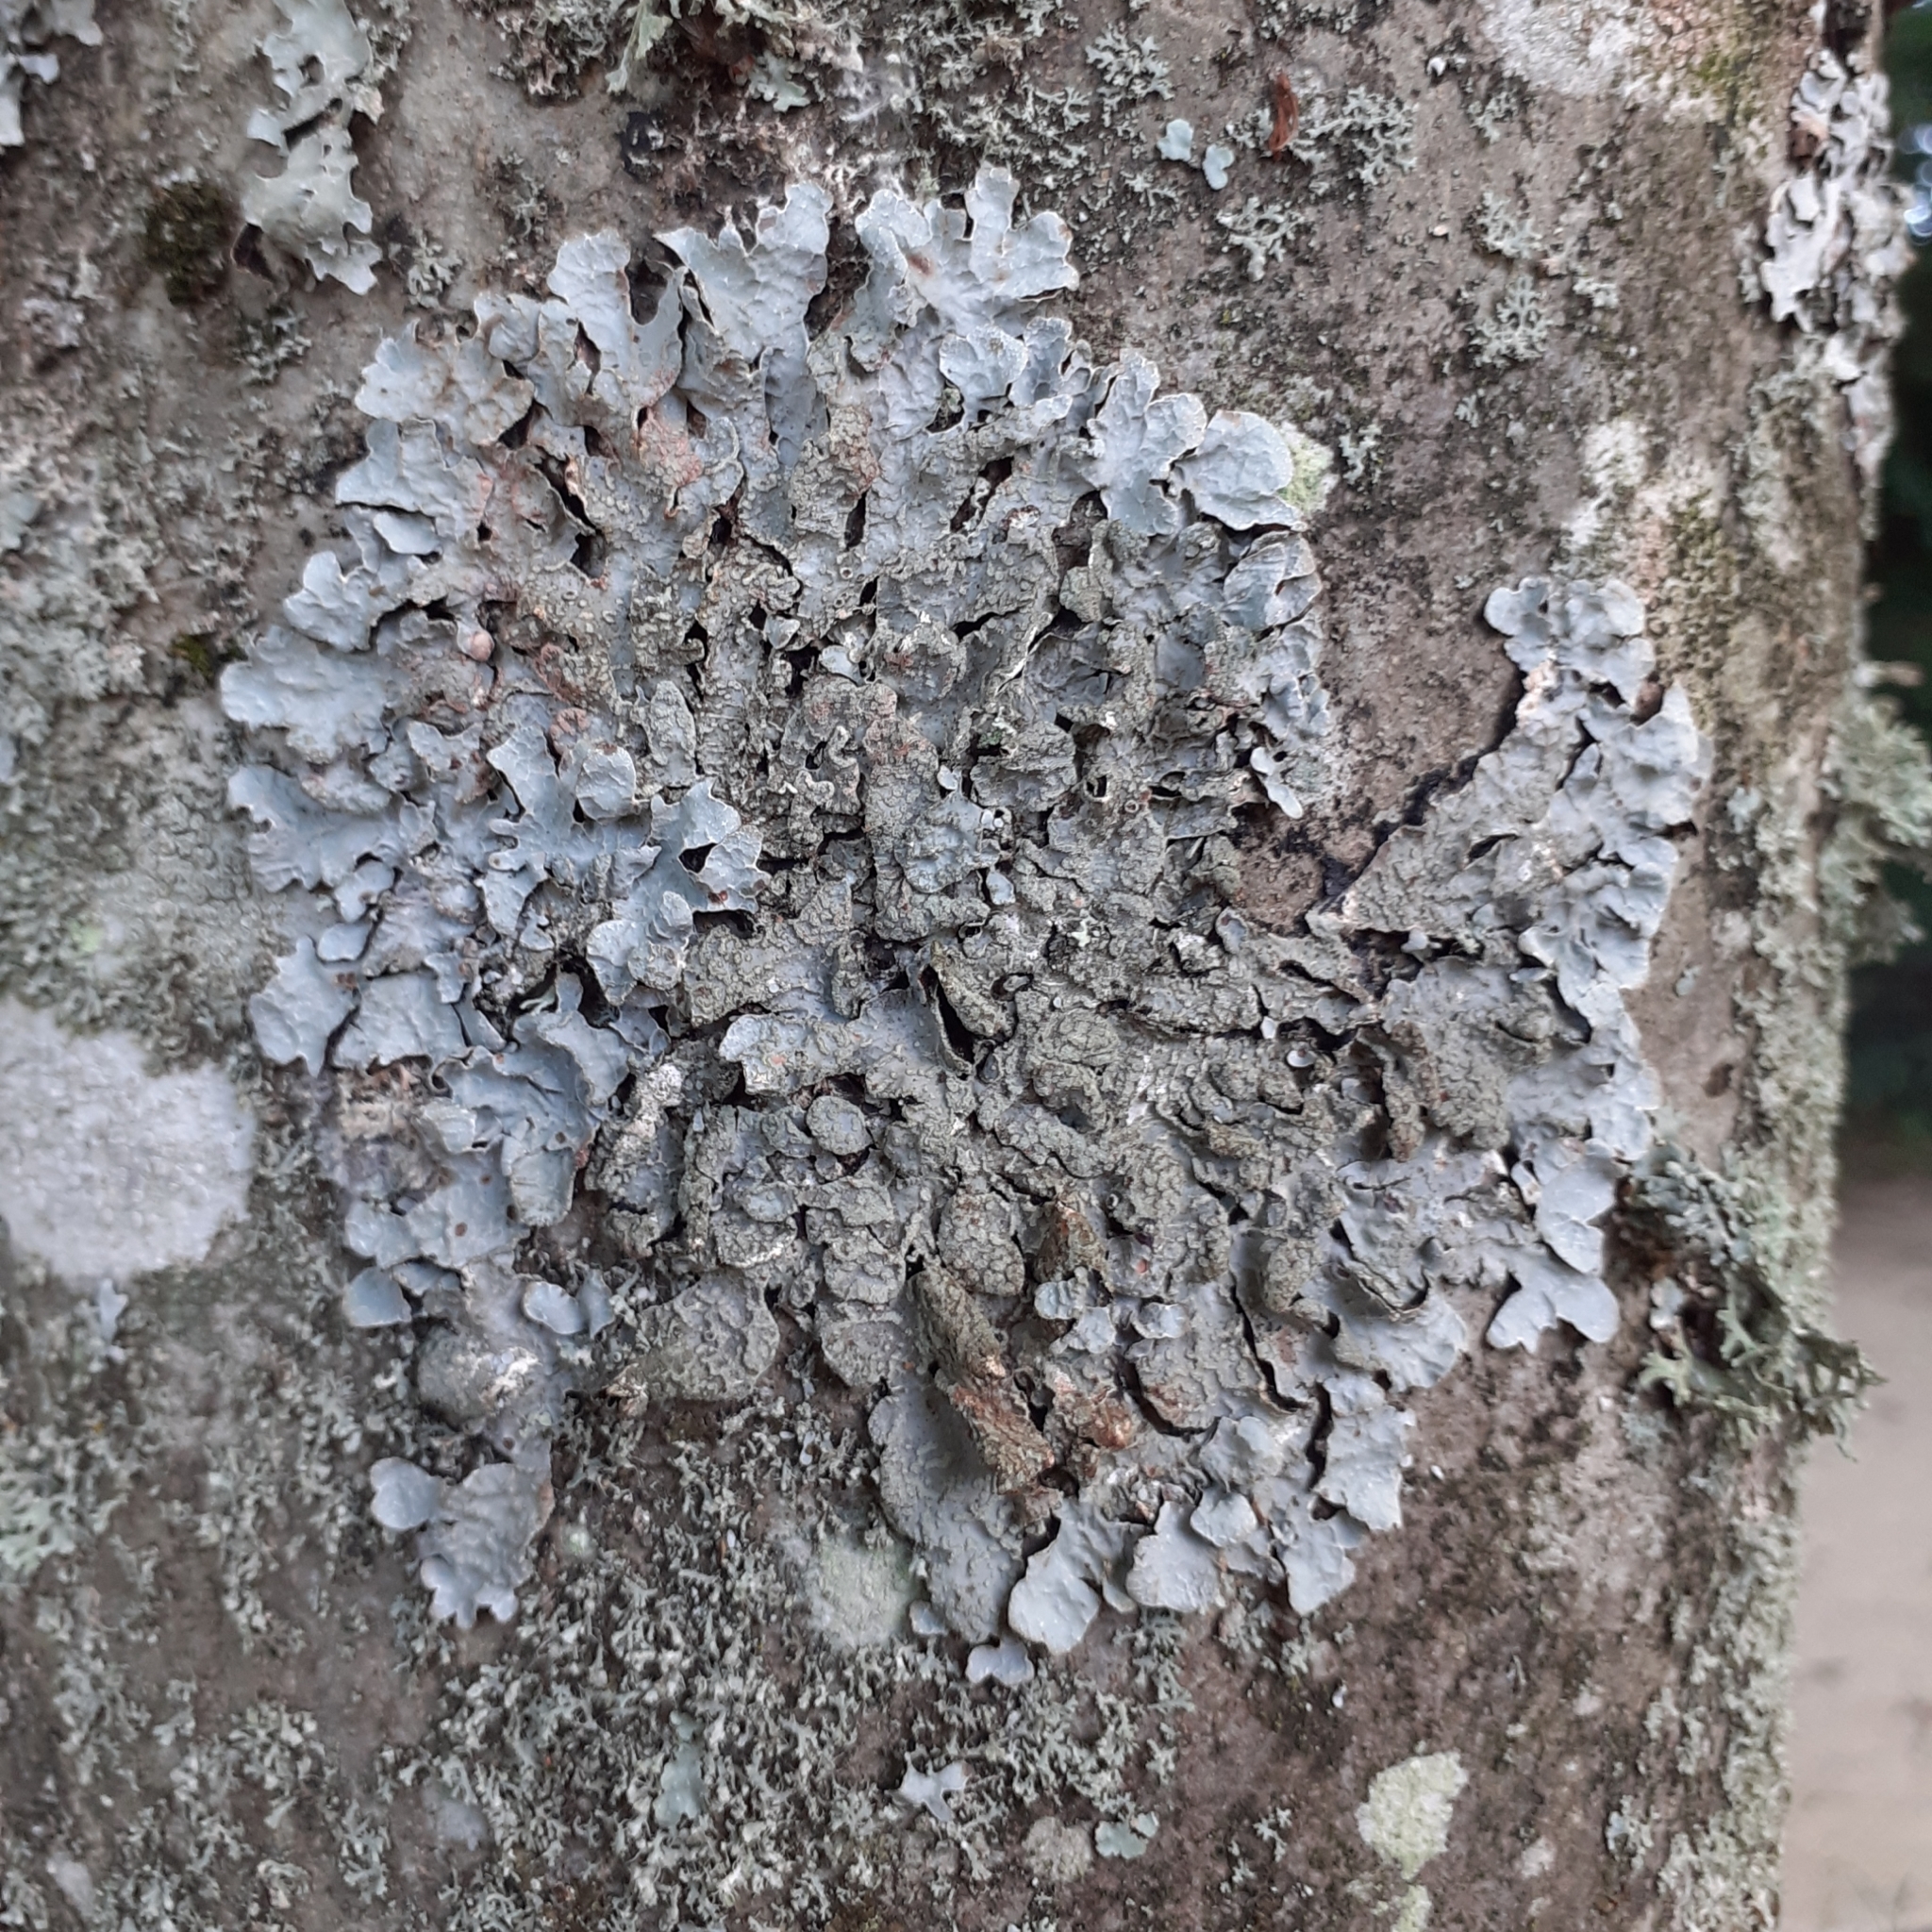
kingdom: Fungi
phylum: Ascomycota
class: Lecanoromycetes
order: Lecanorales
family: Parmeliaceae
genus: Parmelia
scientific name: Parmelia sulcata
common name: Netted shield lichen
